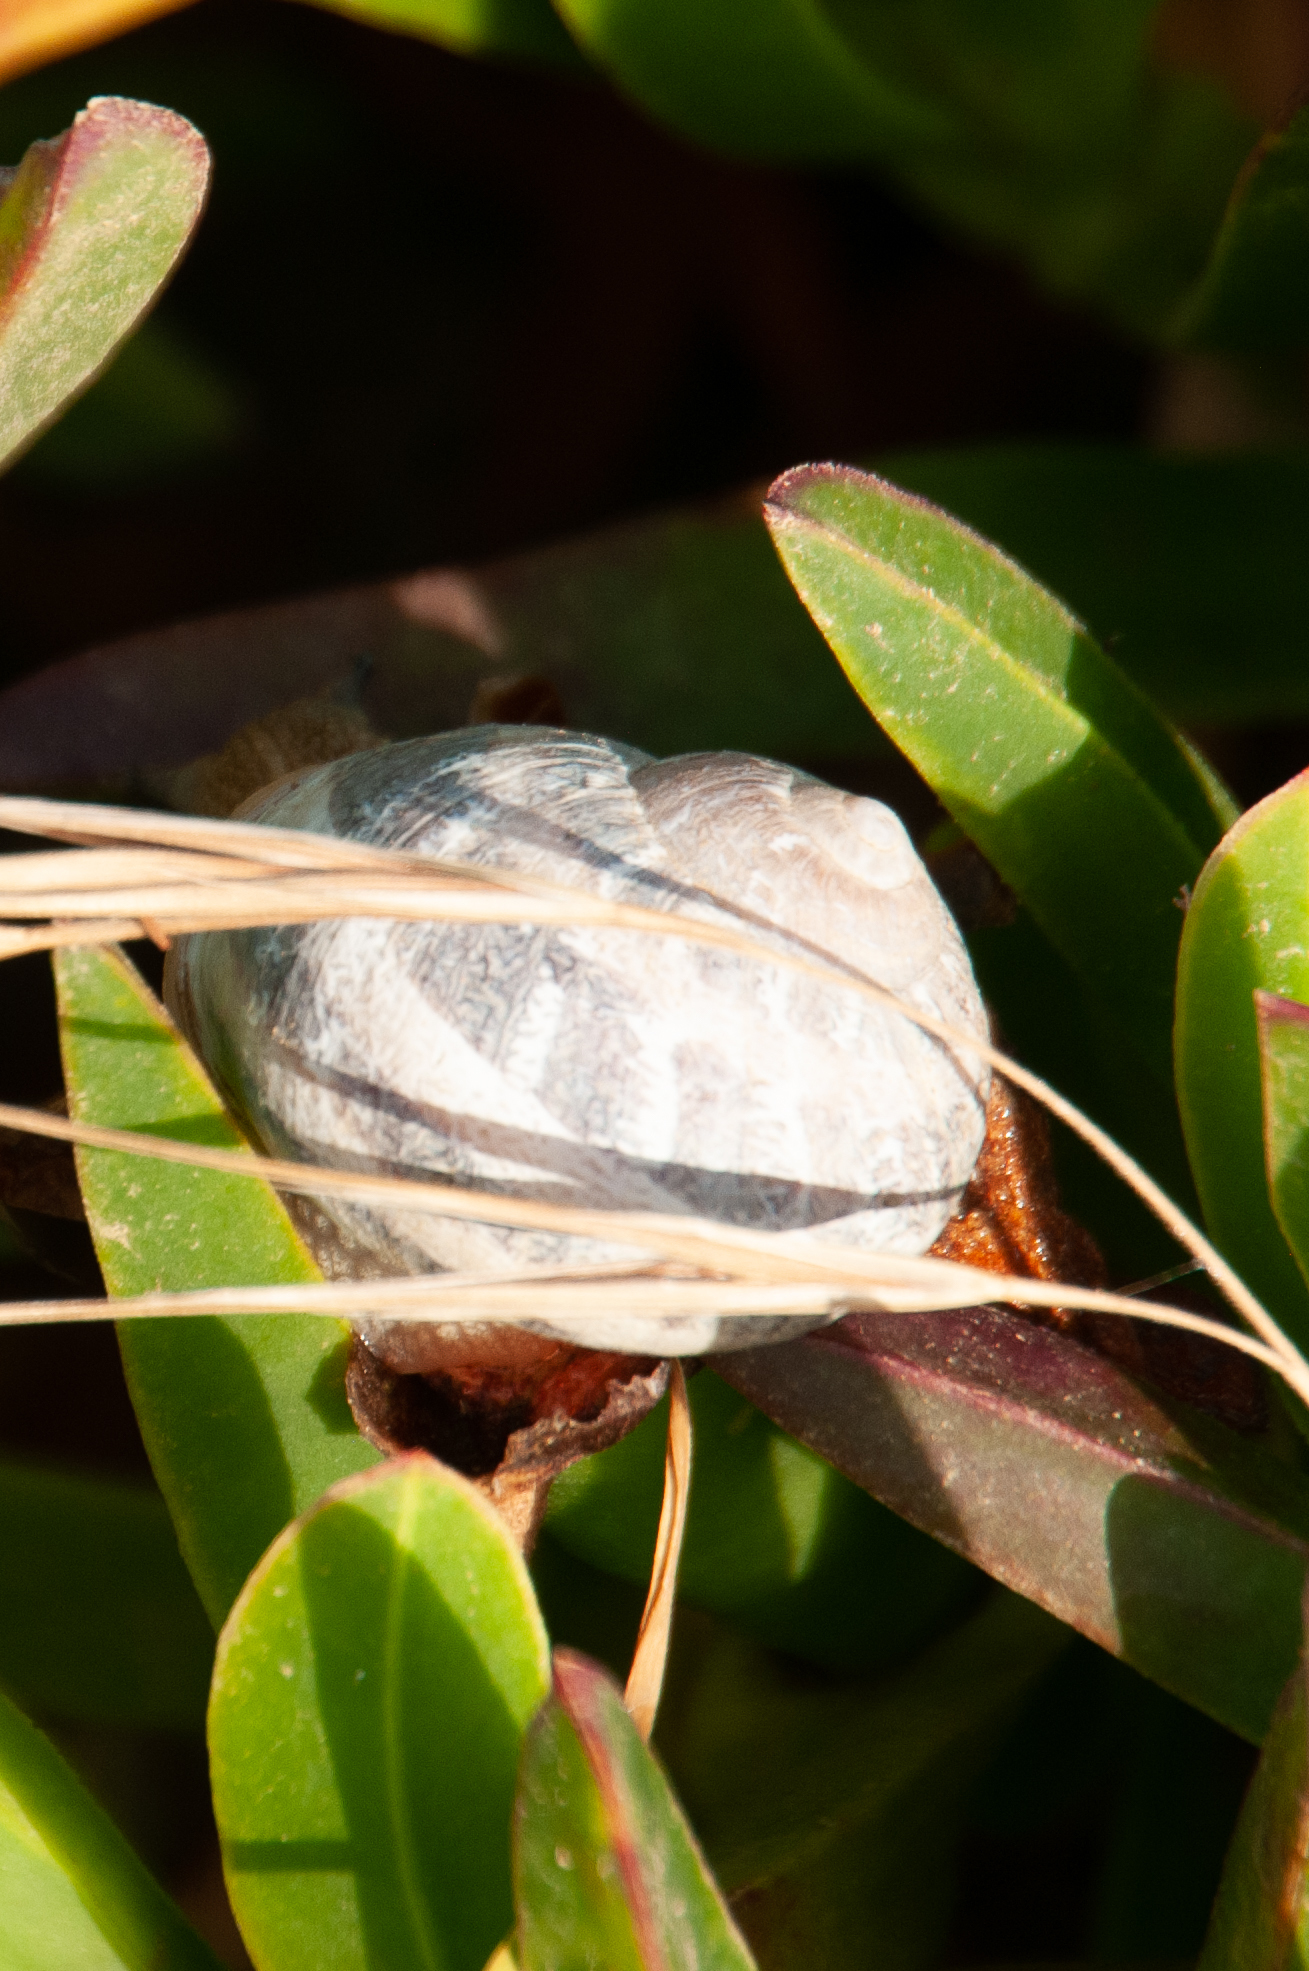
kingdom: Animalia
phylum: Mollusca
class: Gastropoda
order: Stylommatophora
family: Helicidae
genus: Cornu
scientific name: Cornu aspersum
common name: Brown garden snail
